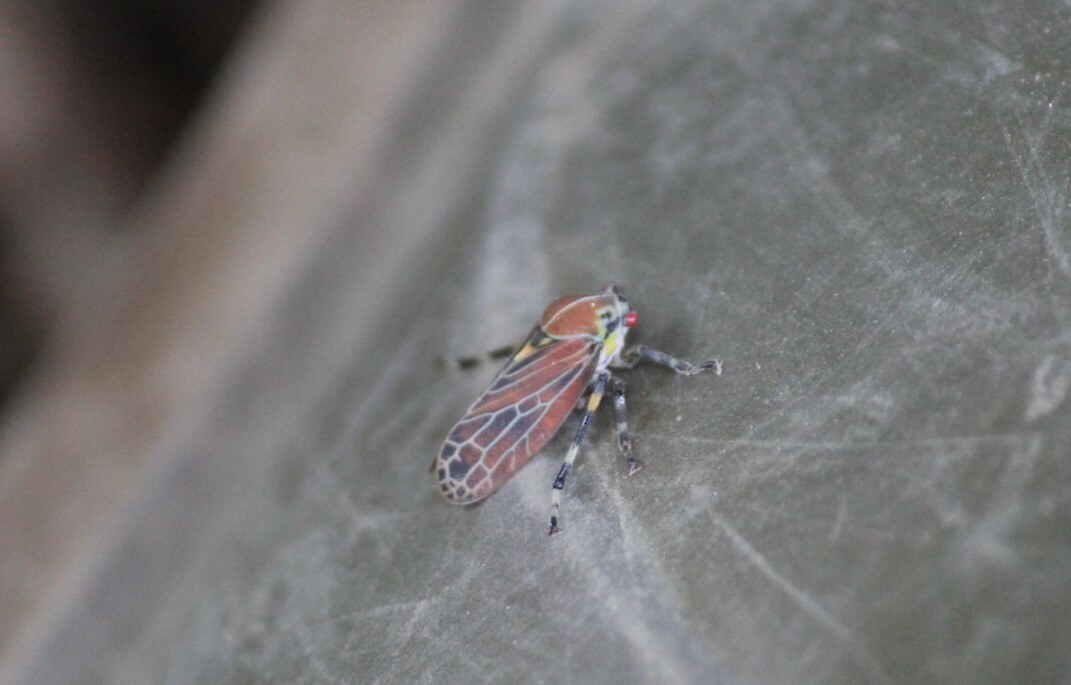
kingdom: Animalia
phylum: Arthropoda
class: Insecta
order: Hemiptera
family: Aetalionidae
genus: Aetalion
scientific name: Aetalion reticulatum
